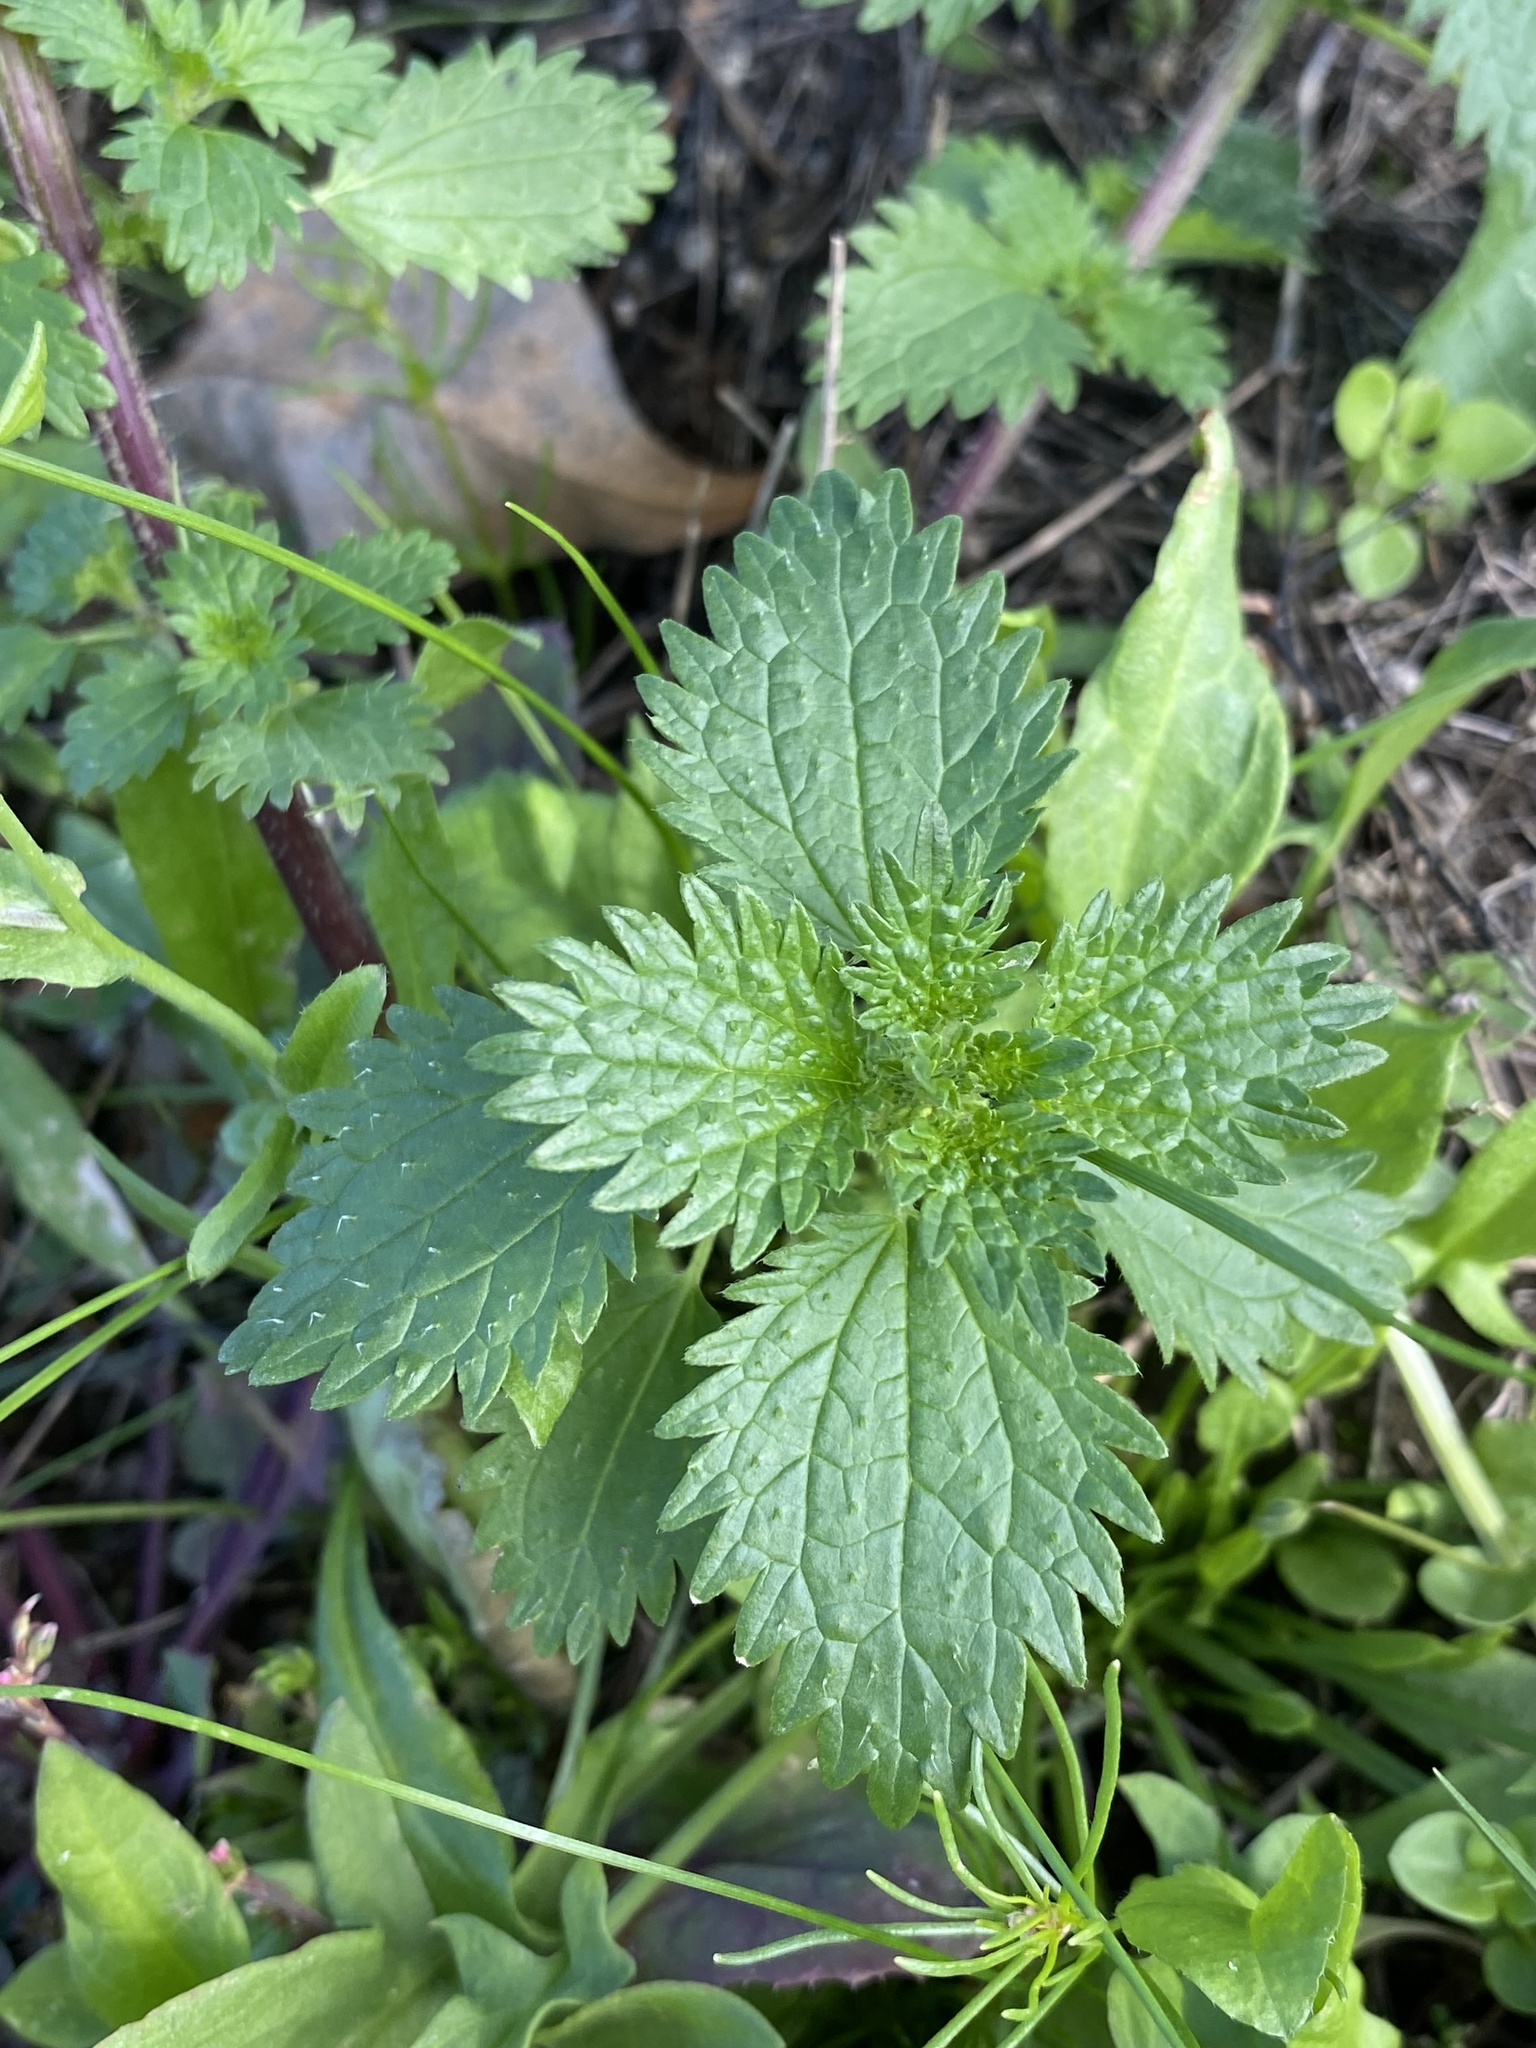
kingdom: Plantae
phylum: Tracheophyta
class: Magnoliopsida
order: Rosales
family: Urticaceae
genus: Urtica
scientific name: Urtica urens
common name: Dwarf nettle
